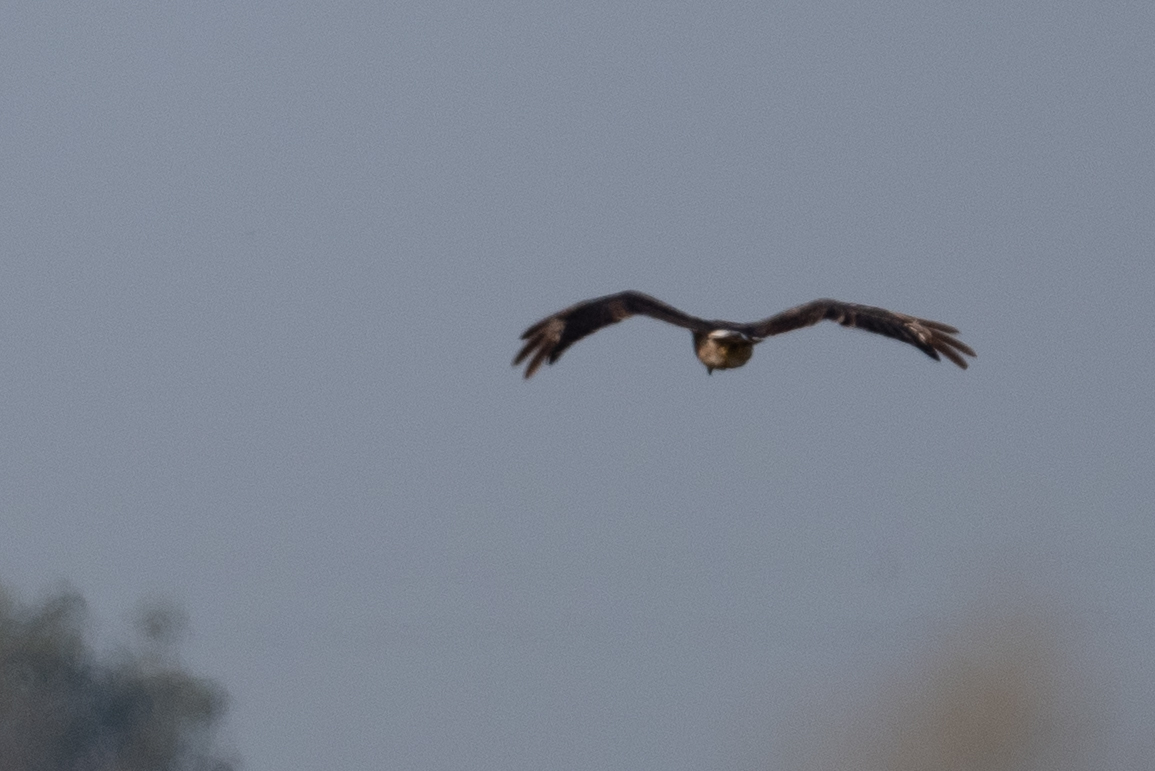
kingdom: Animalia
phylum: Chordata
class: Aves
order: Accipitriformes
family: Accipitridae
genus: Circus
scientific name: Circus cyaneus
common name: Hen harrier
